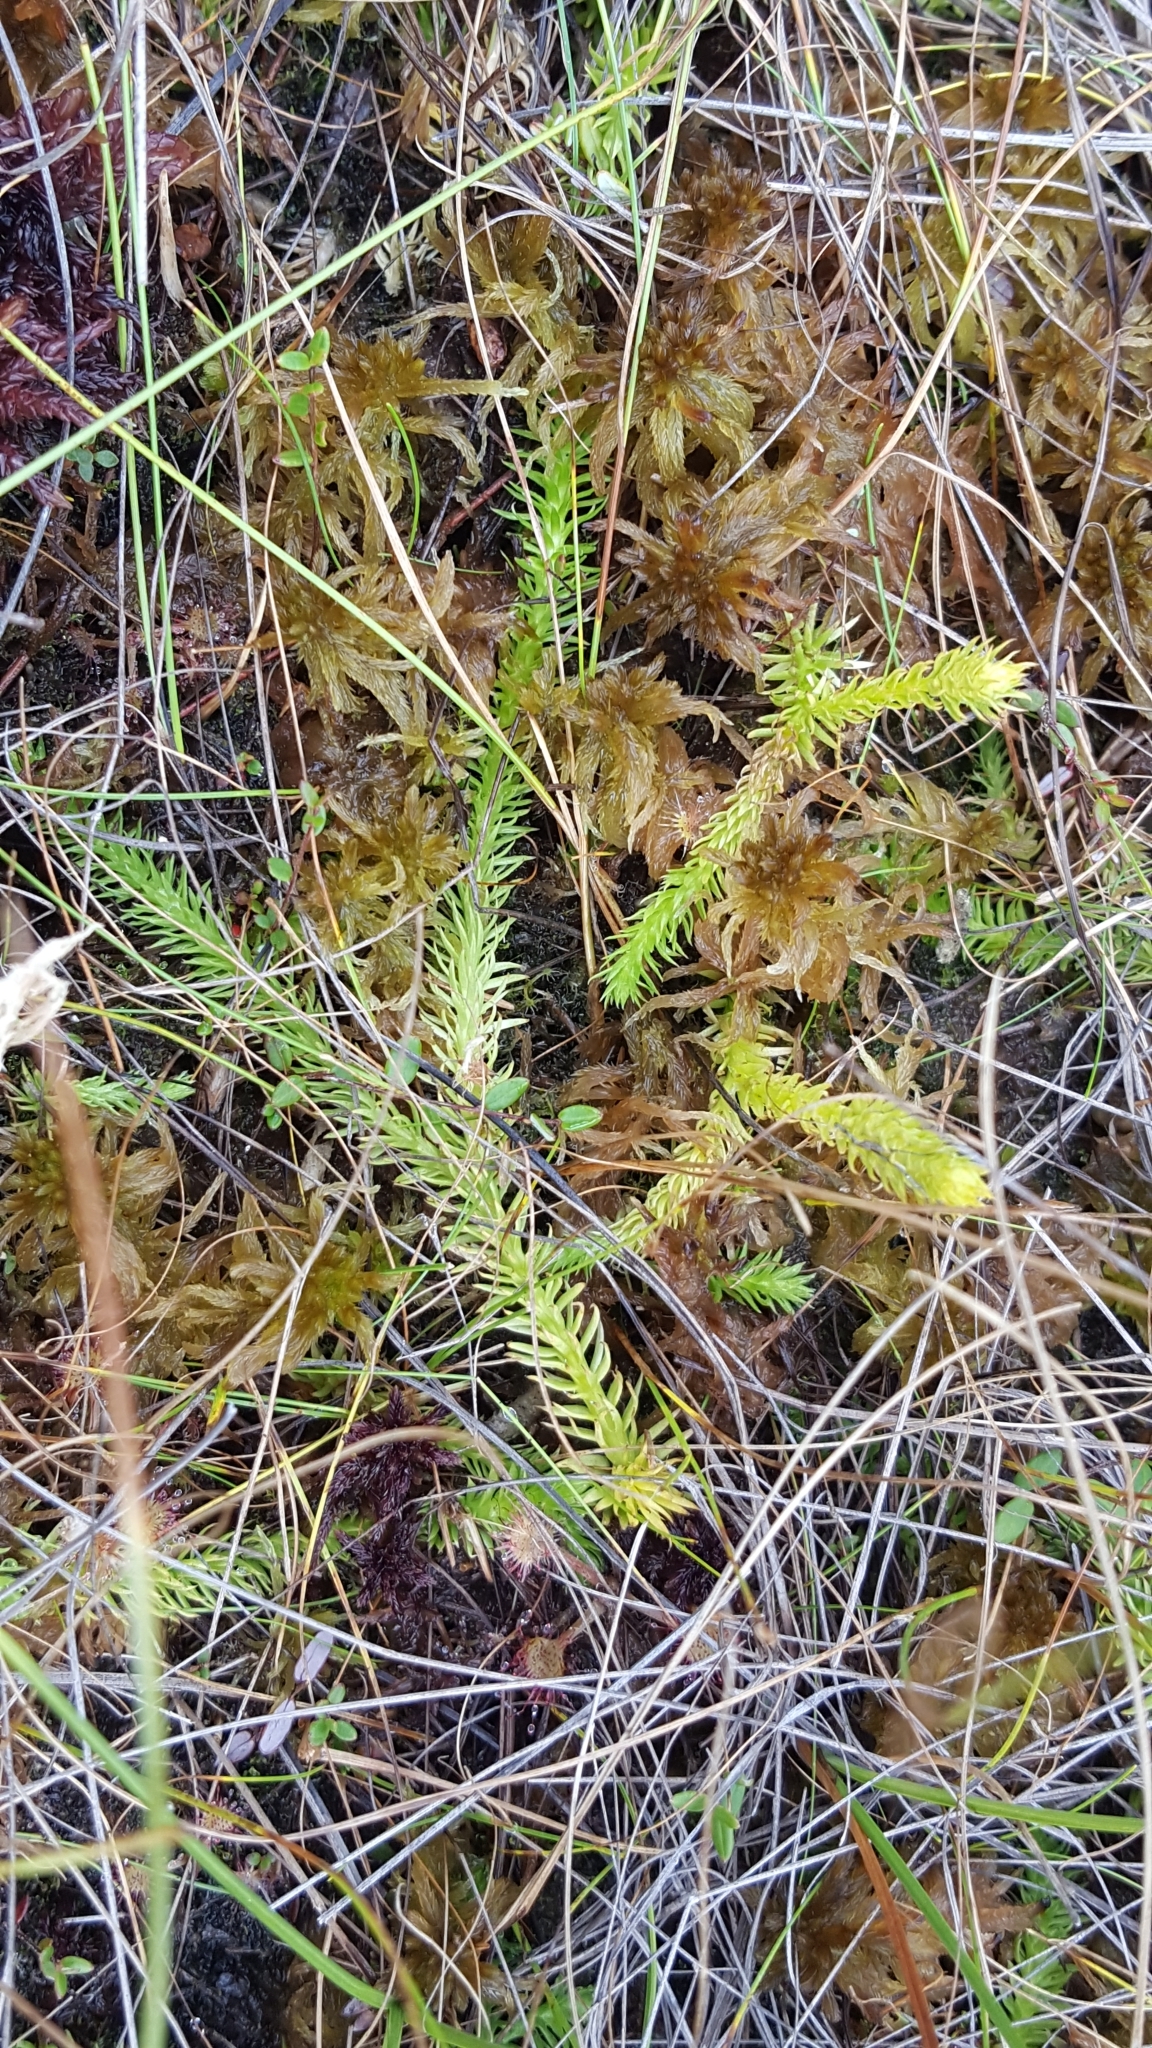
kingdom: Plantae
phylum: Tracheophyta
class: Lycopodiopsida
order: Lycopodiales
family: Lycopodiaceae
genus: Lycopodiella
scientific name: Lycopodiella inundata
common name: Marsh clubmoss
